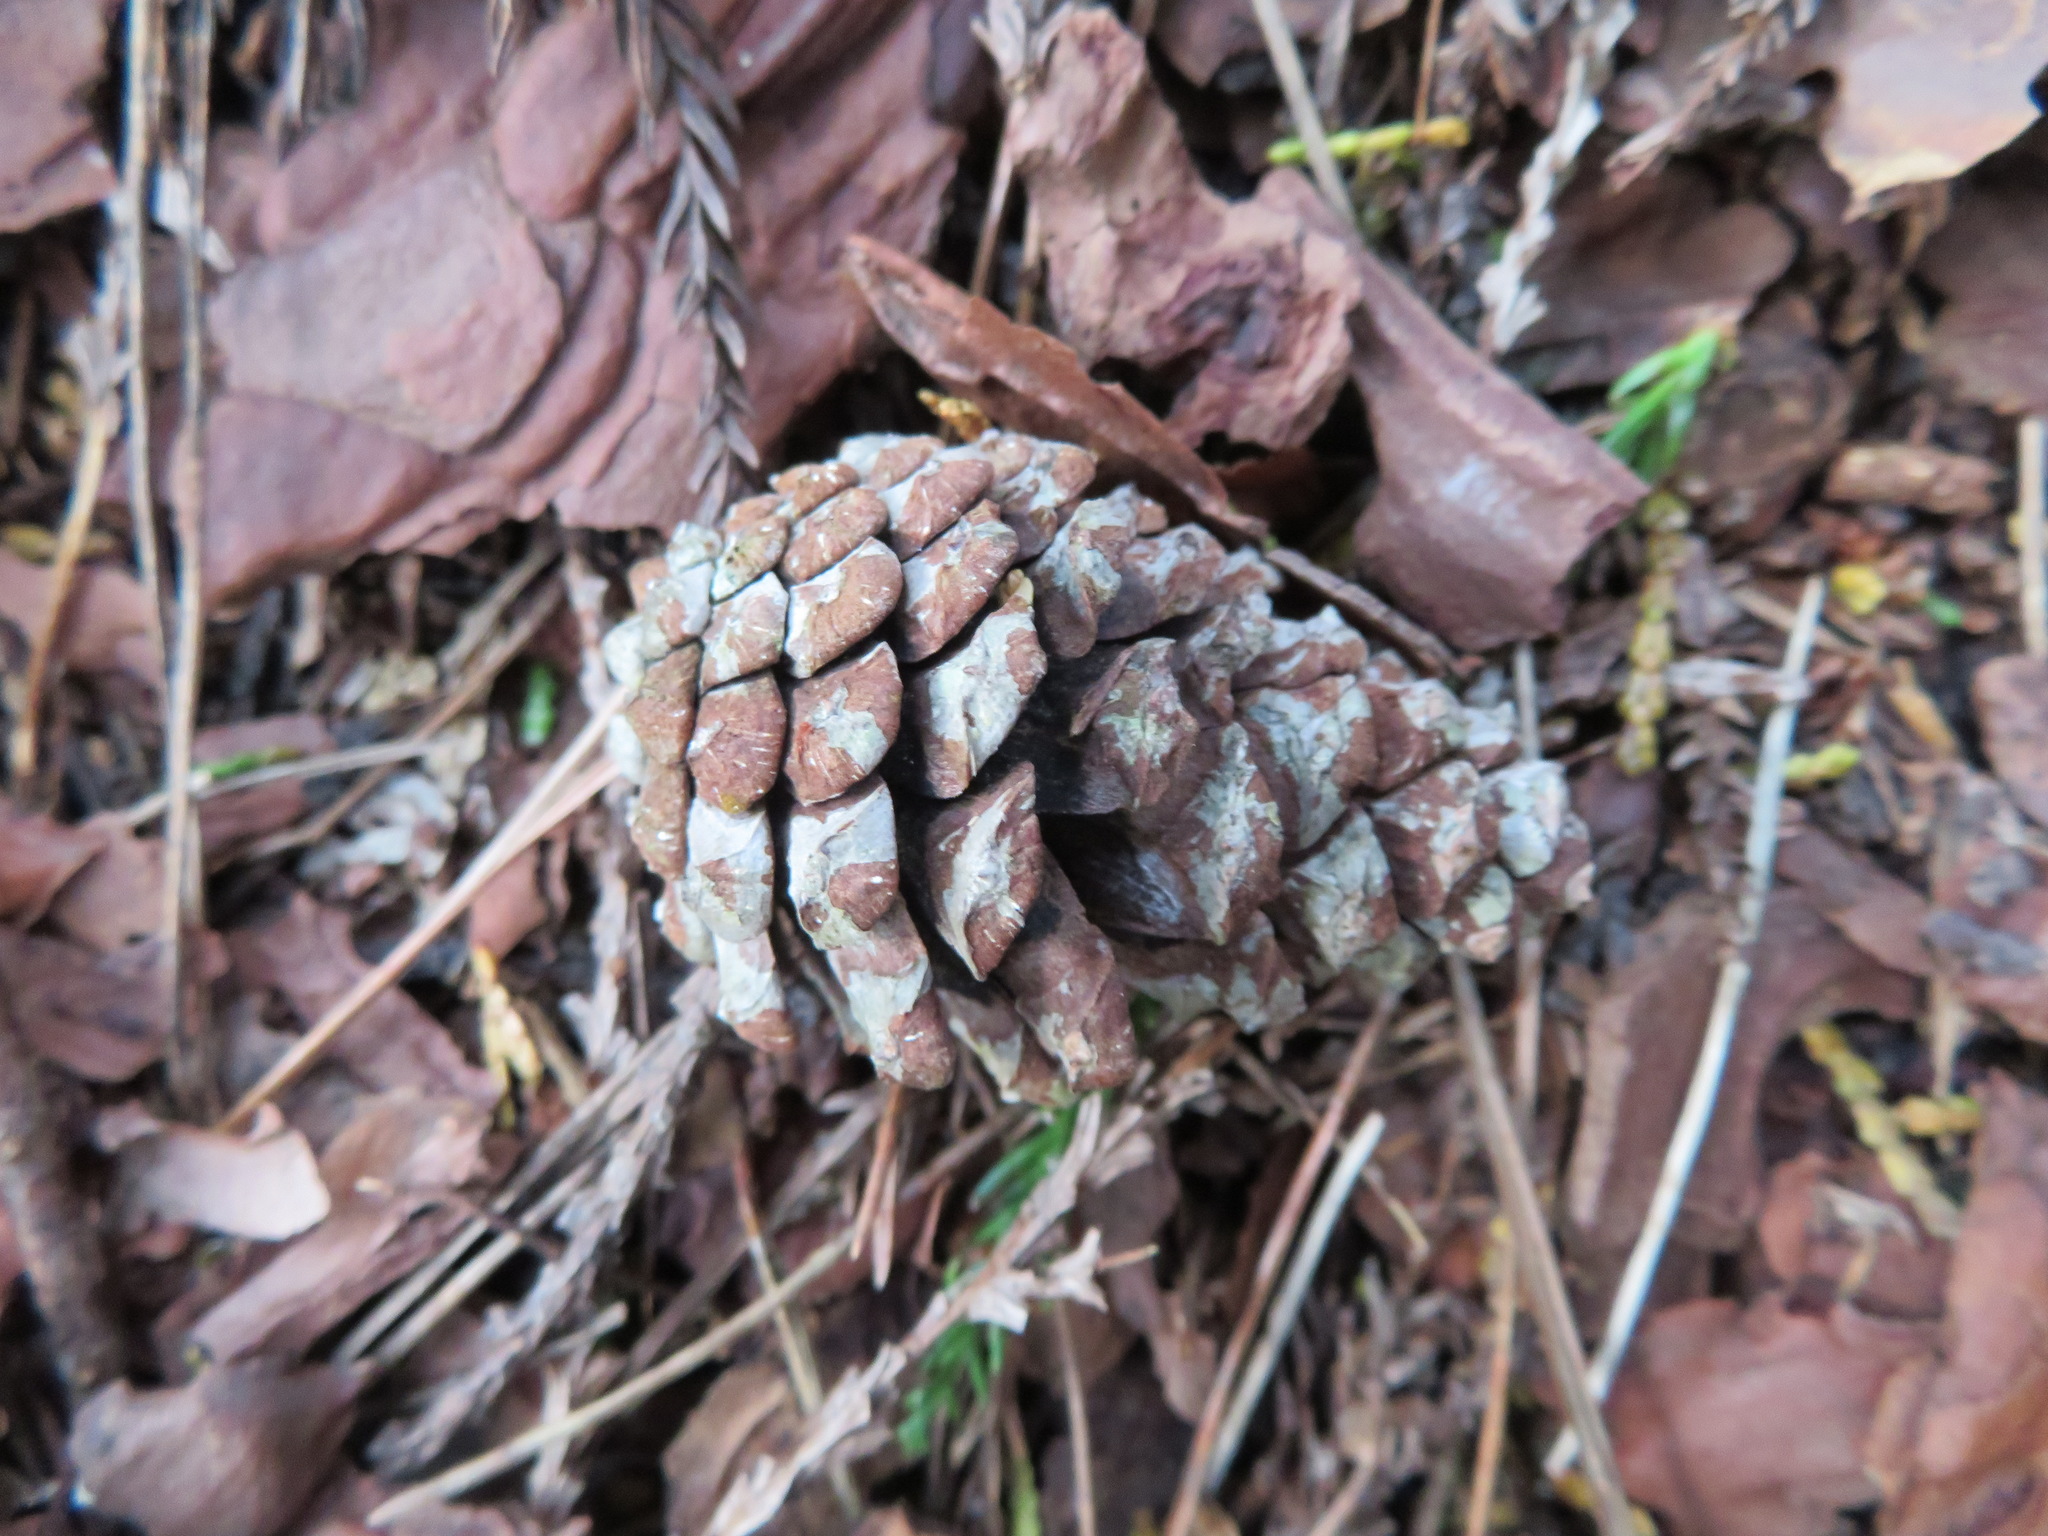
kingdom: Plantae
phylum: Tracheophyta
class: Pinopsida
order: Pinales
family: Pinaceae
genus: Pinus
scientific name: Pinus densiflora
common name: Japanese red pine
